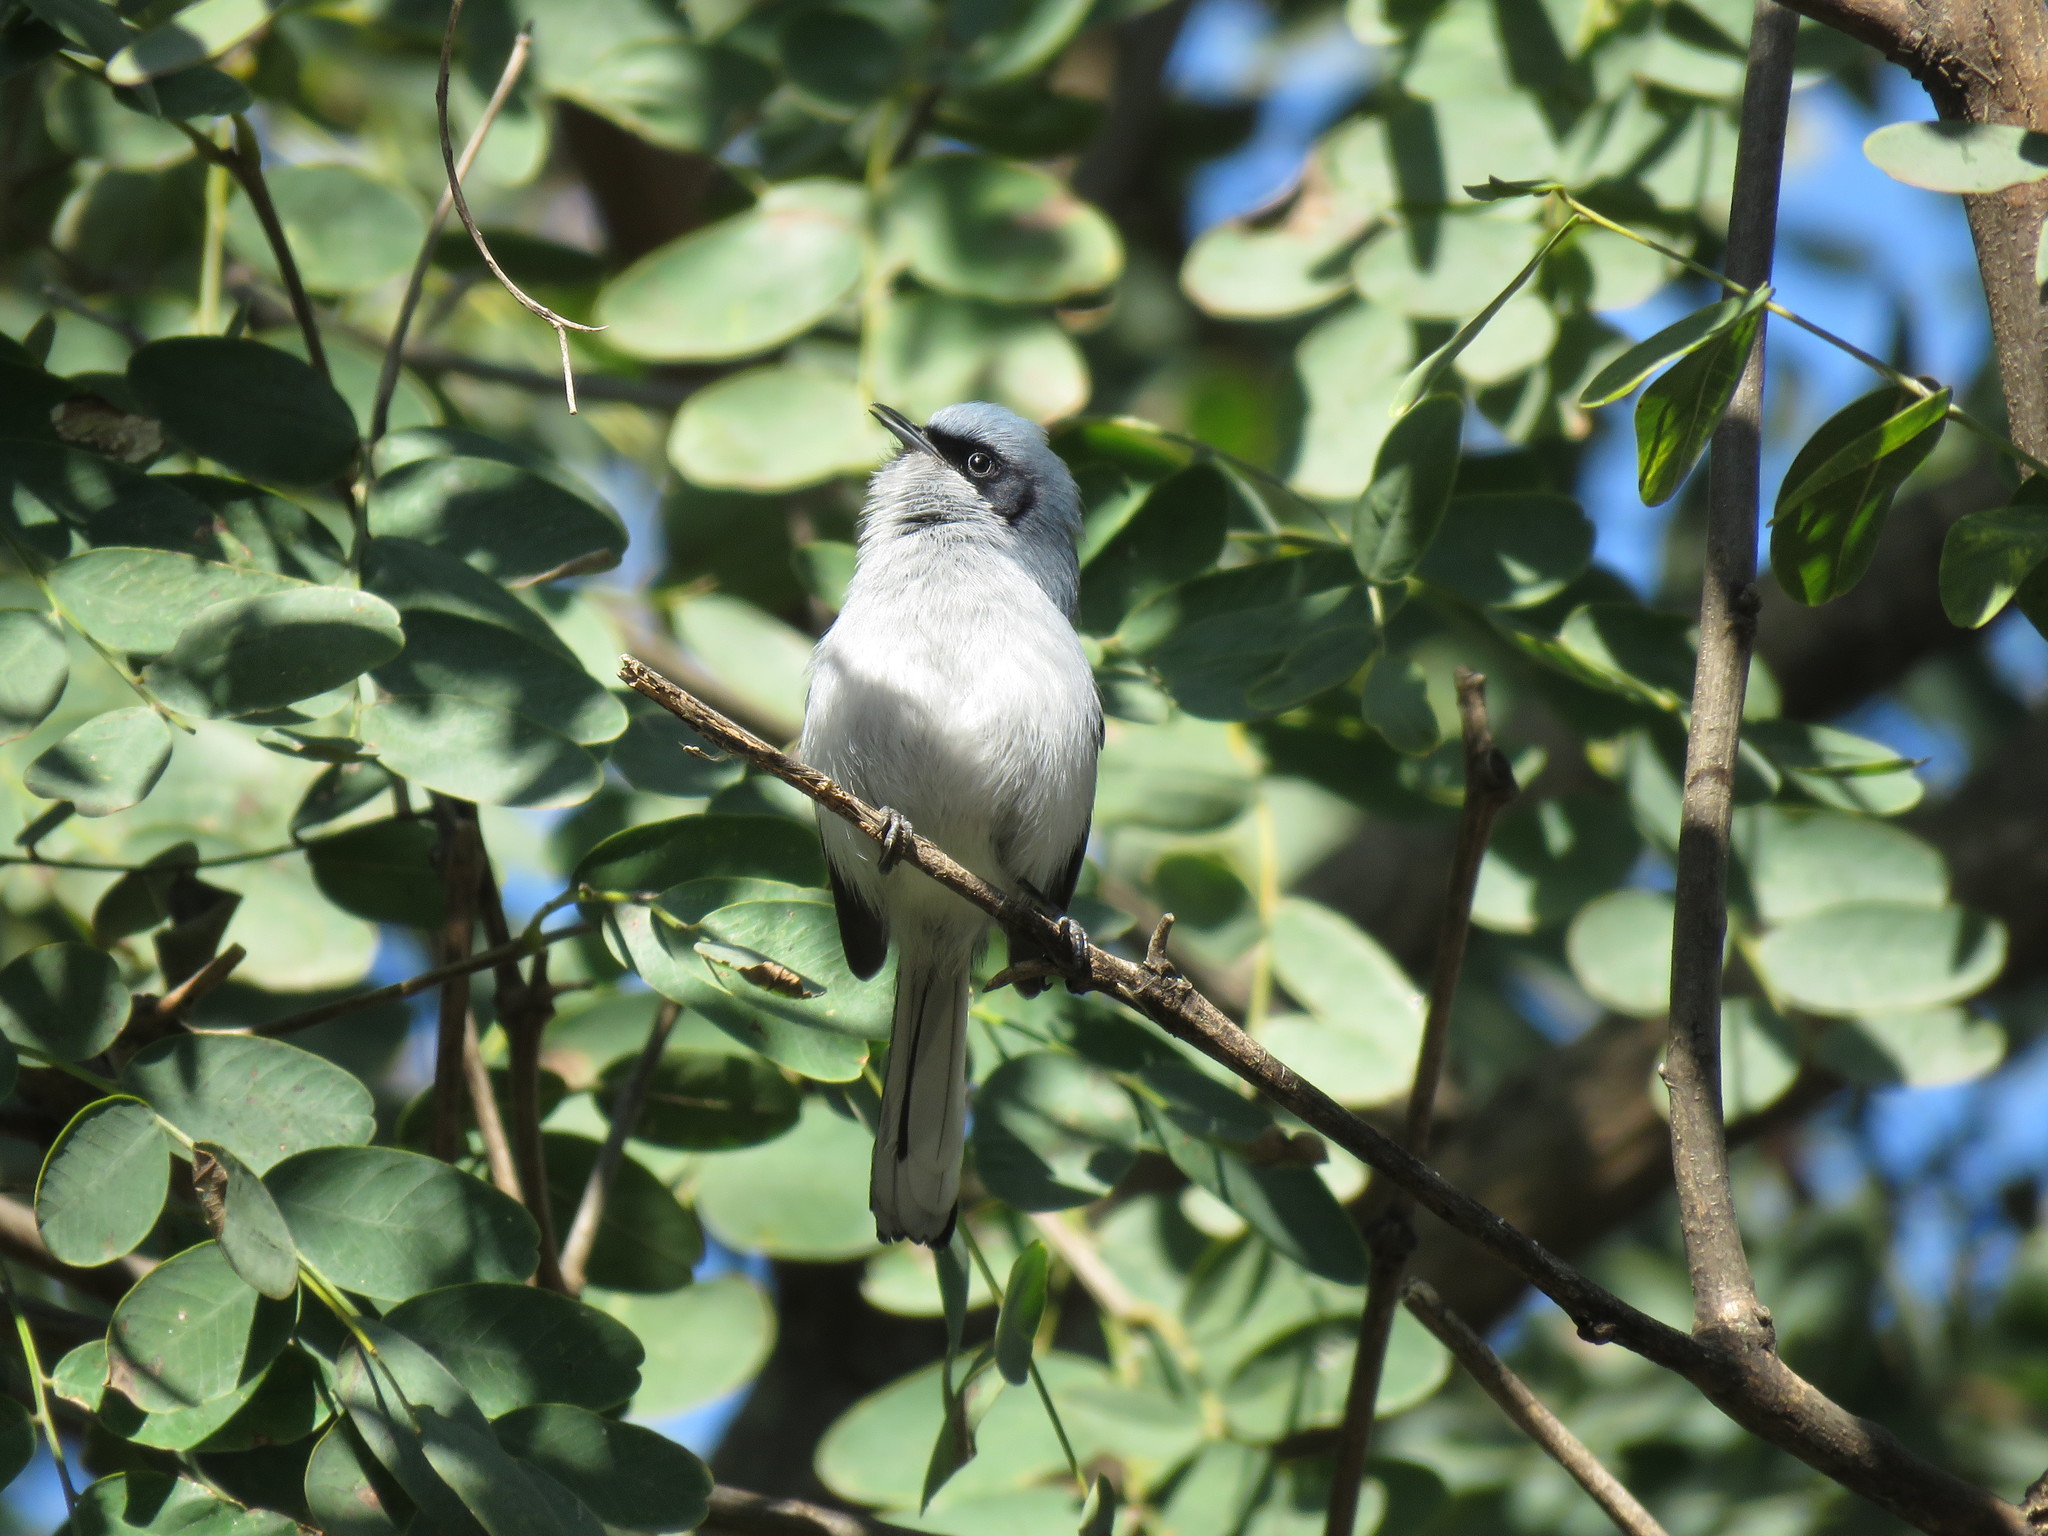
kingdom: Animalia
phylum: Chordata
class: Aves
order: Passeriformes
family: Polioptilidae
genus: Polioptila
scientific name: Polioptila dumicola
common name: Masked gnatcatcher
